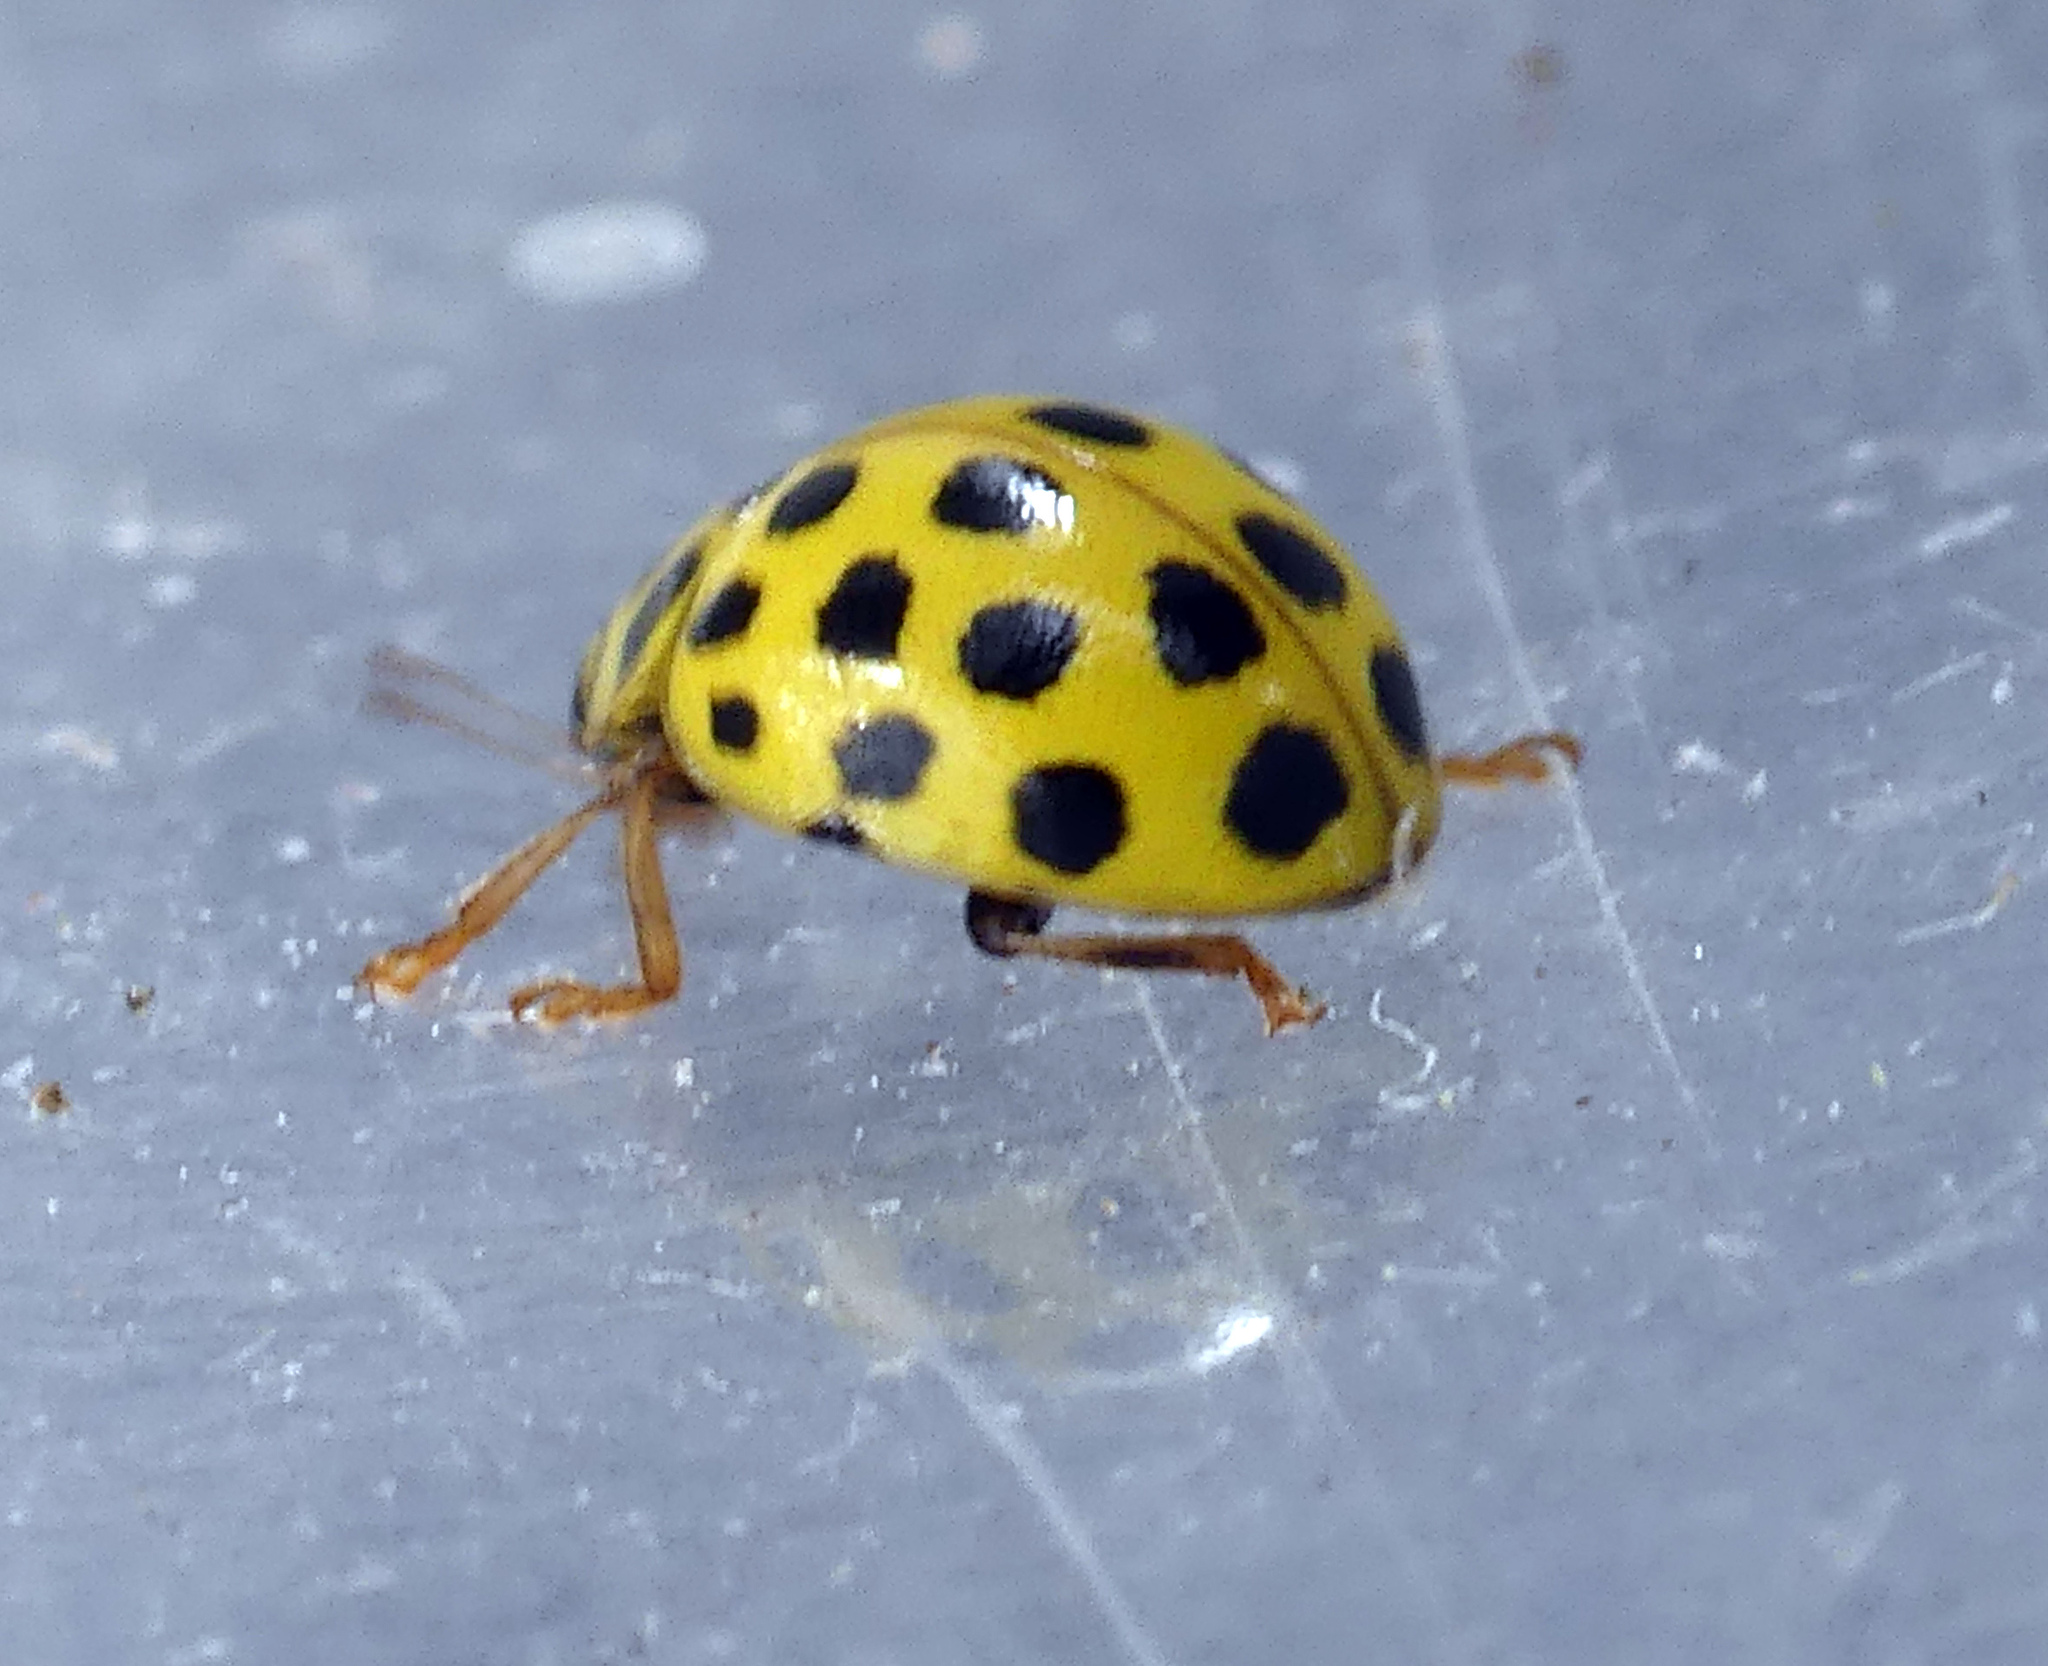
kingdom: Animalia
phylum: Arthropoda
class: Insecta
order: Coleoptera
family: Coccinellidae
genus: Psyllobora
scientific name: Psyllobora vigintiduopunctata
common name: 22-spot ladybird
